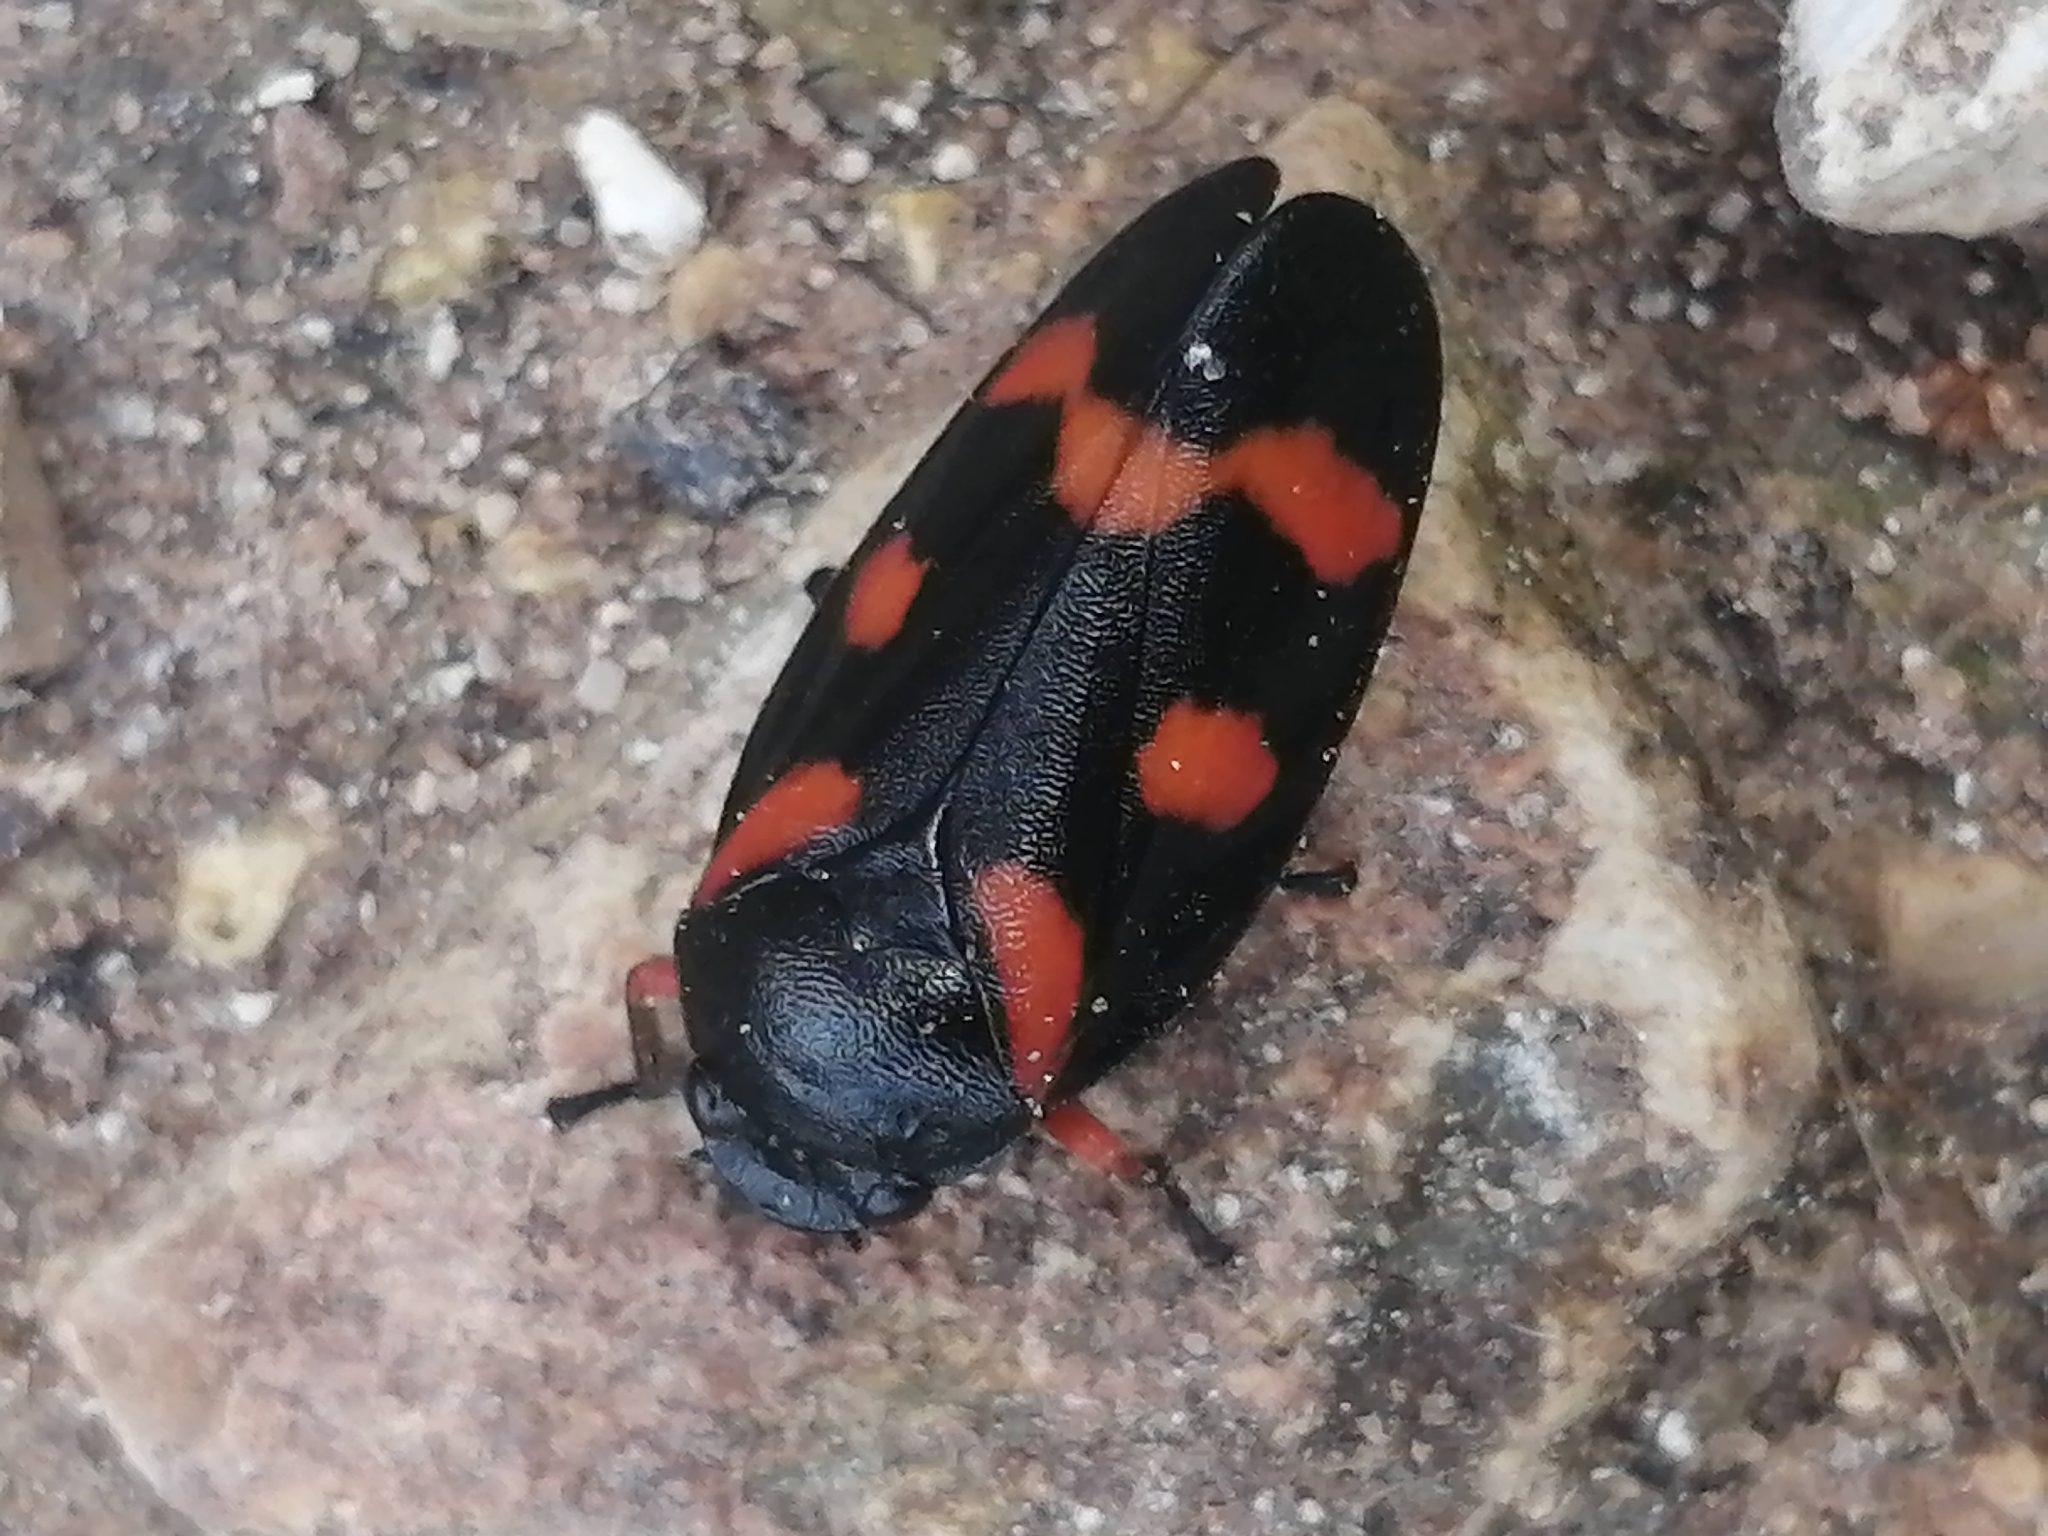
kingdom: Animalia
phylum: Arthropoda
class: Insecta
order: Hemiptera
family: Cercopidae
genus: Cercopis
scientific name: Cercopis intermedia
